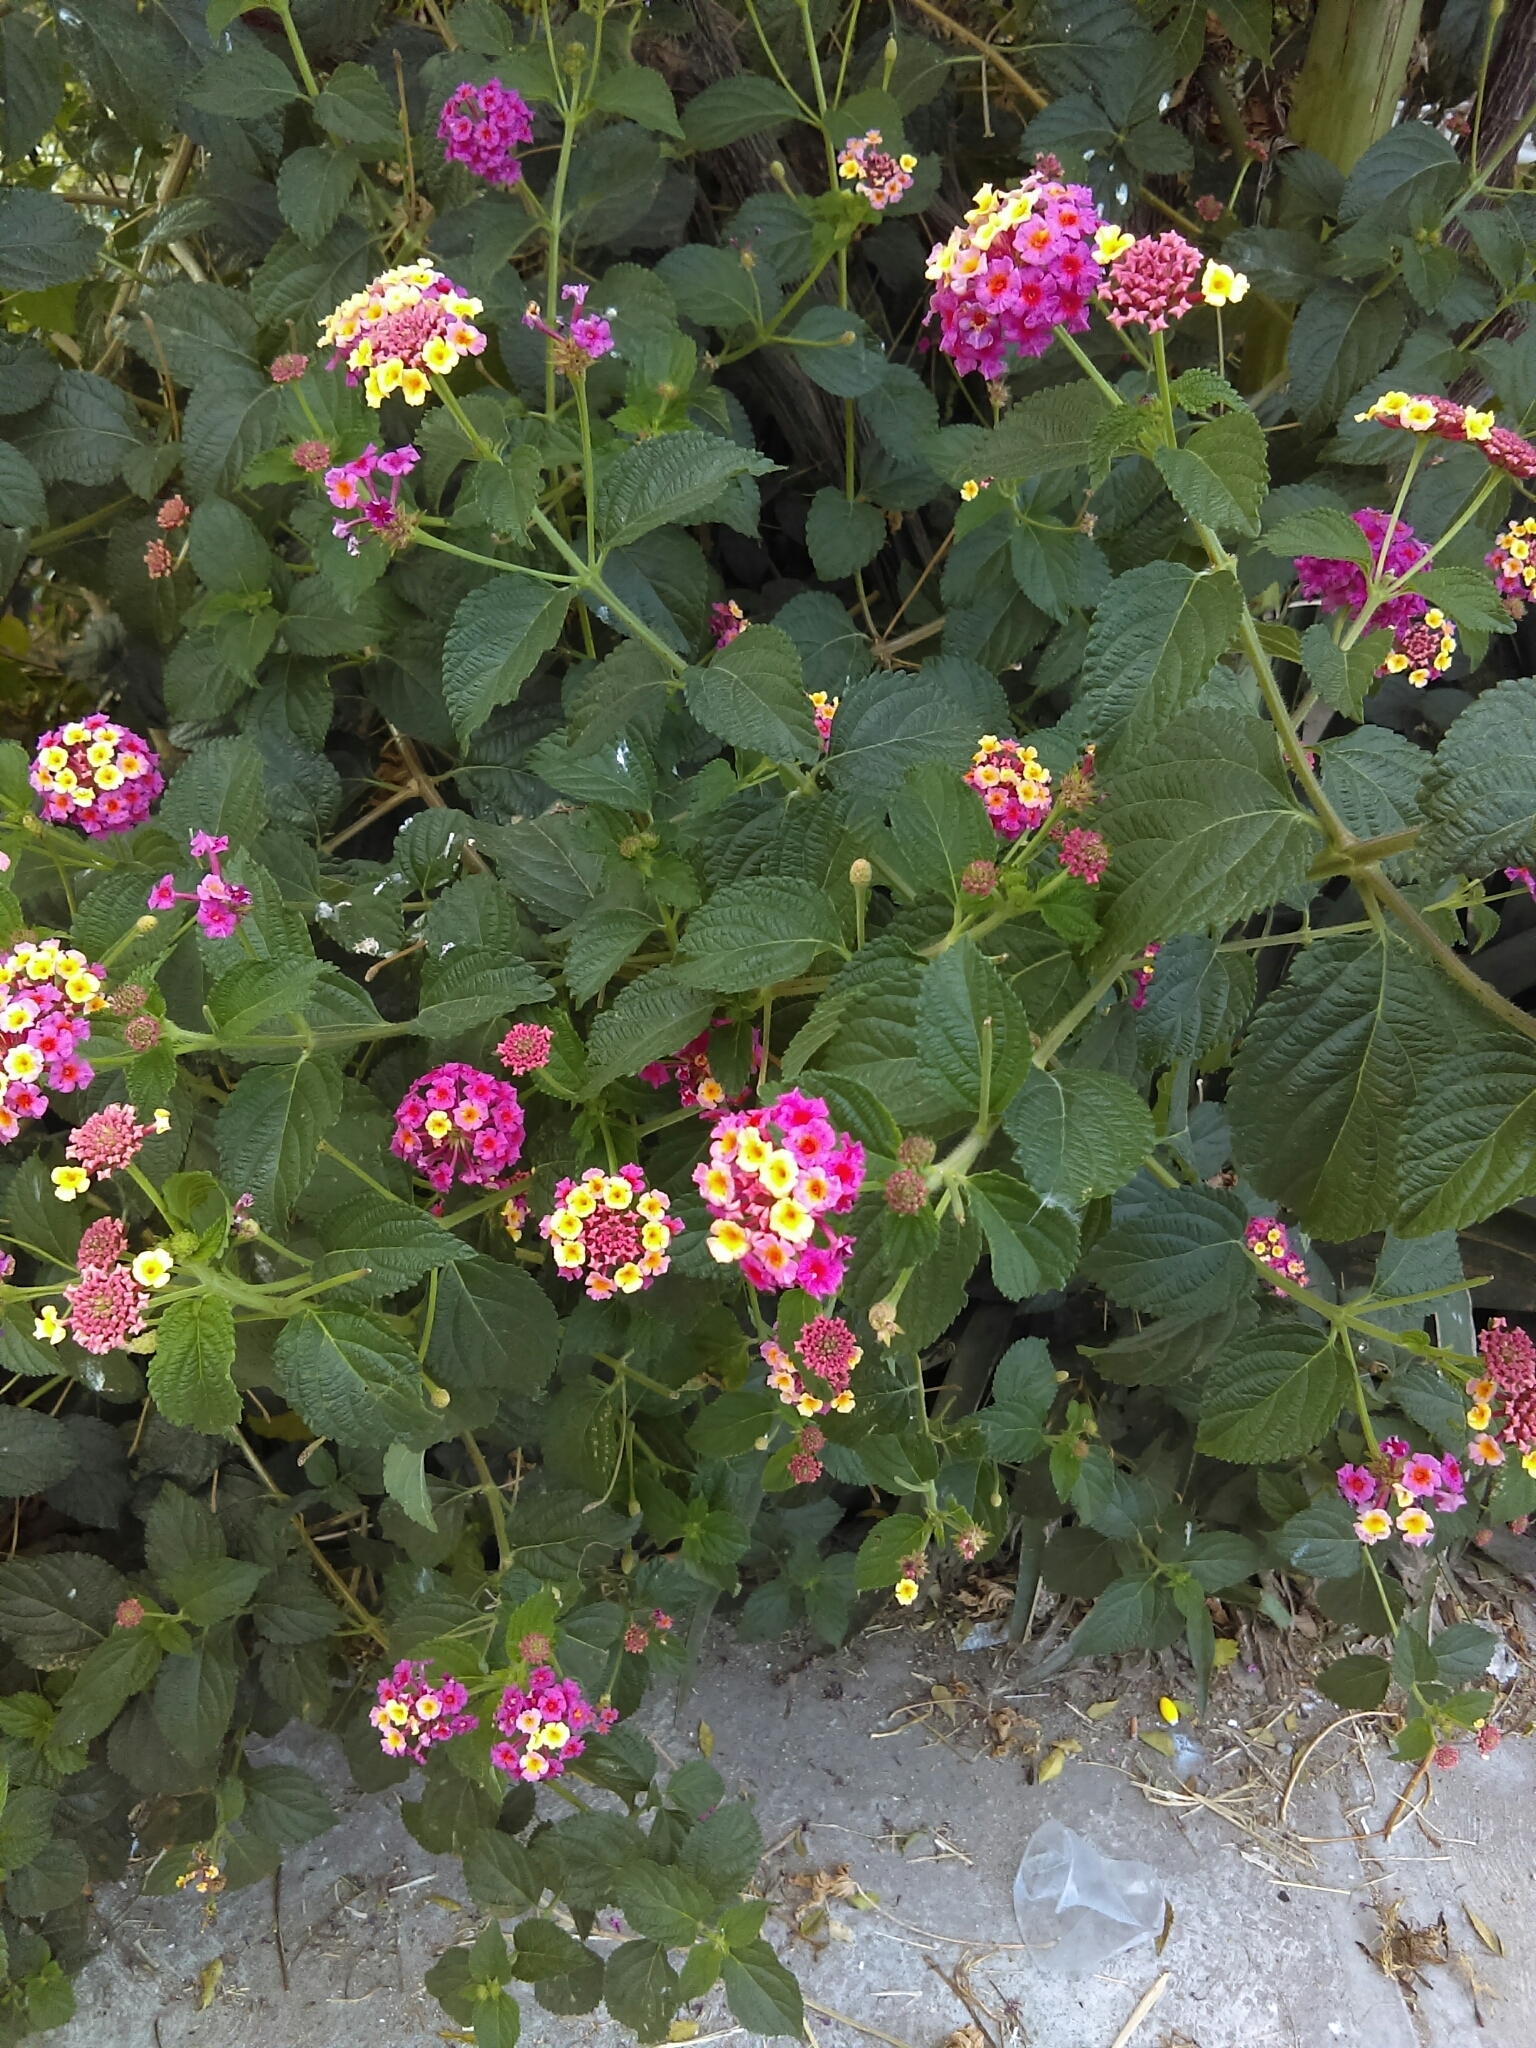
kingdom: Plantae
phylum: Tracheophyta
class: Magnoliopsida
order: Lamiales
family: Verbenaceae
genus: Lantana
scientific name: Lantana camara
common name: Lantana
